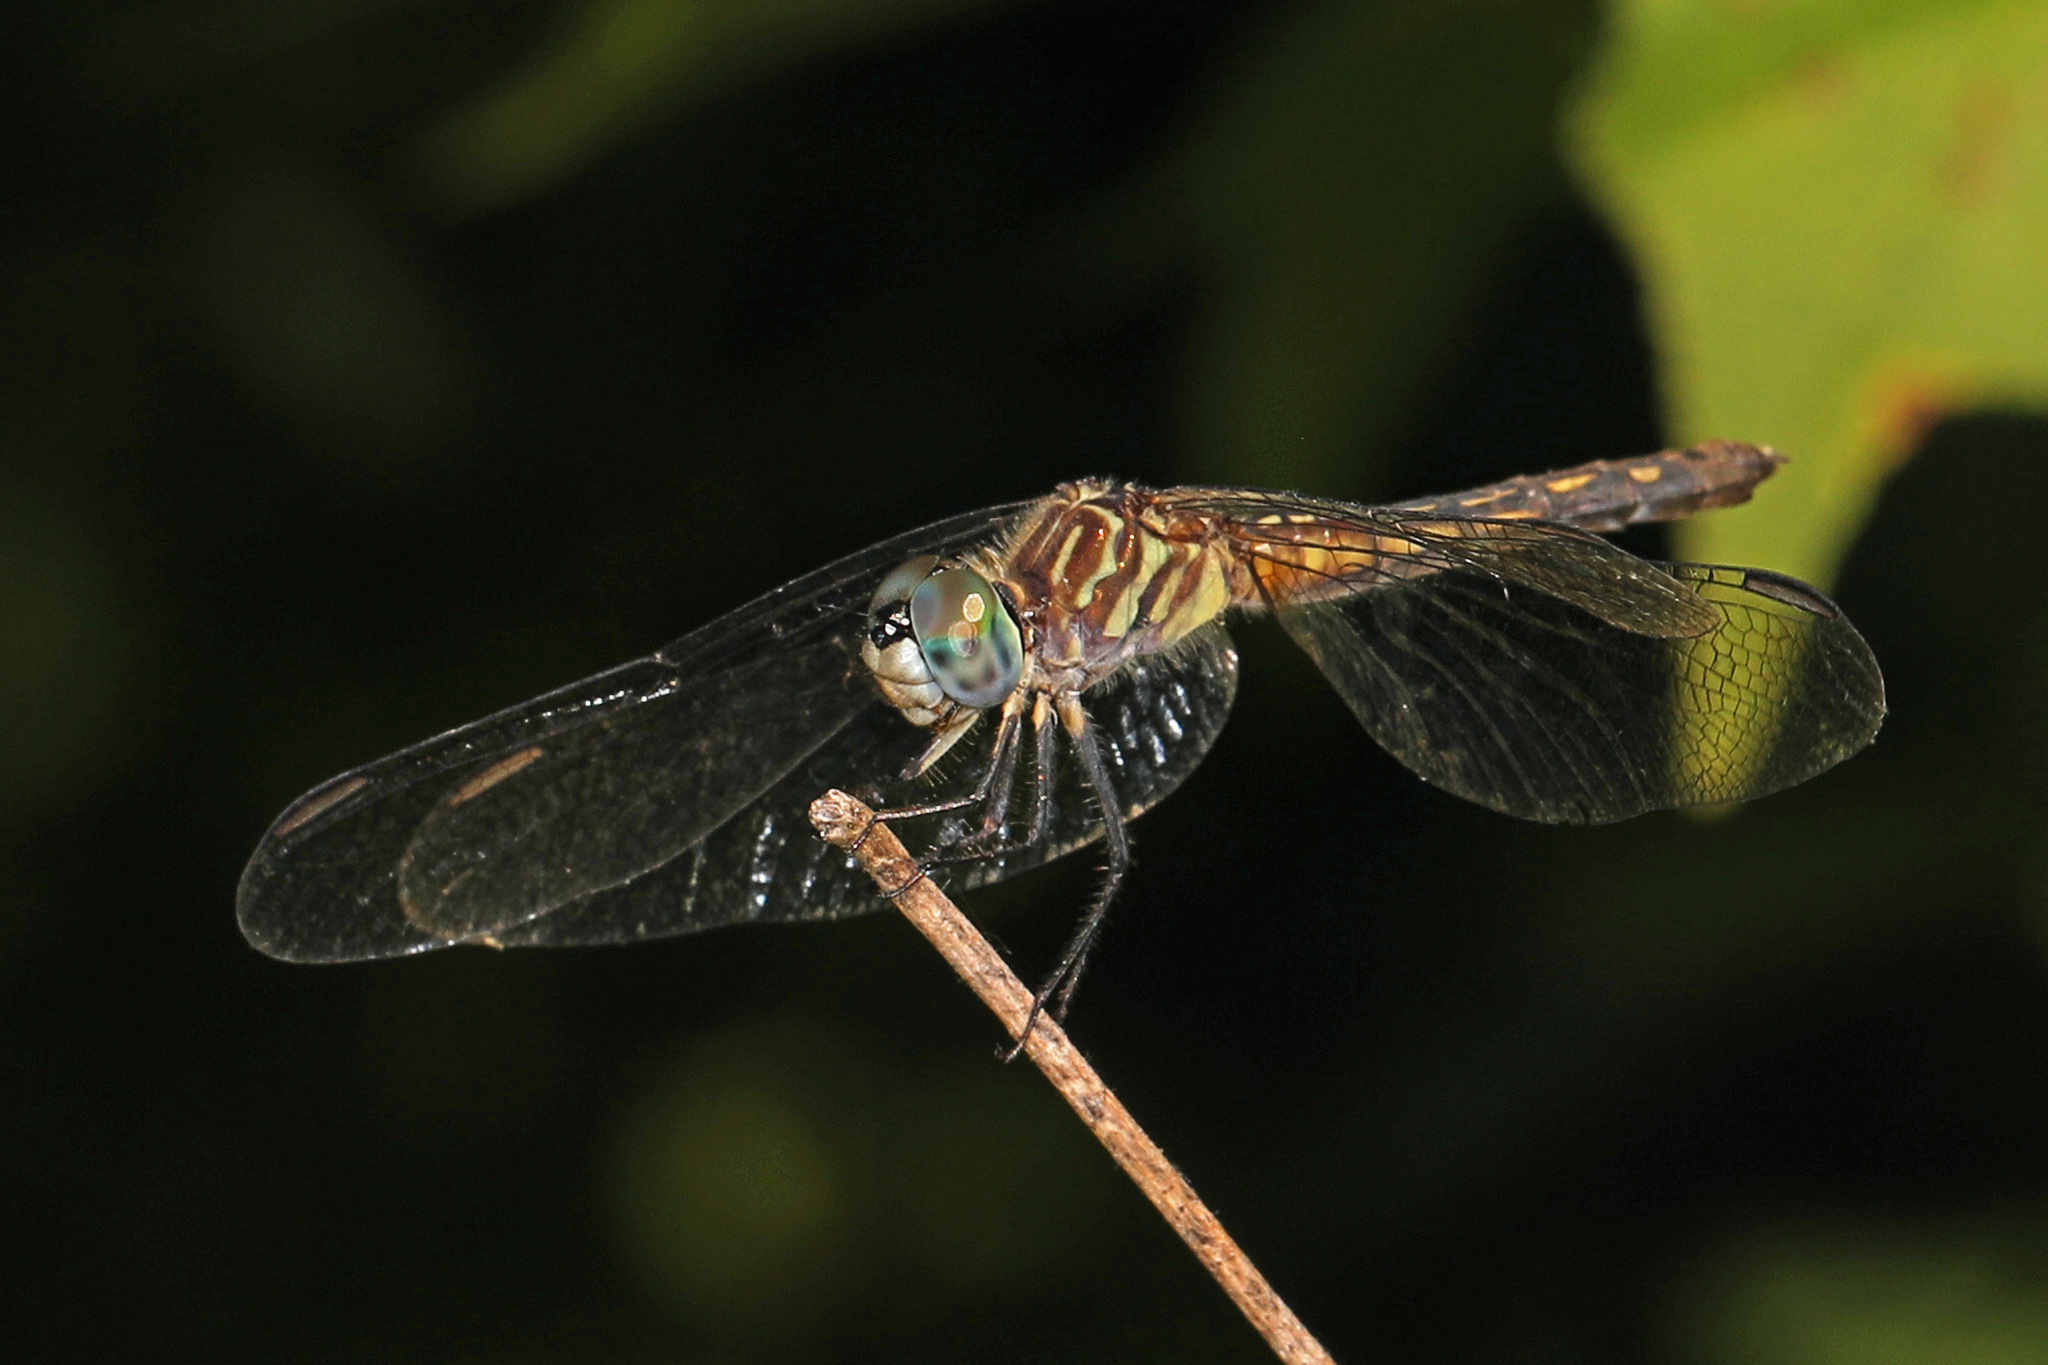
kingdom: Animalia
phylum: Arthropoda
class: Insecta
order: Odonata
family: Libellulidae
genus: Pachydiplax
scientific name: Pachydiplax longipennis
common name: Blue dasher
